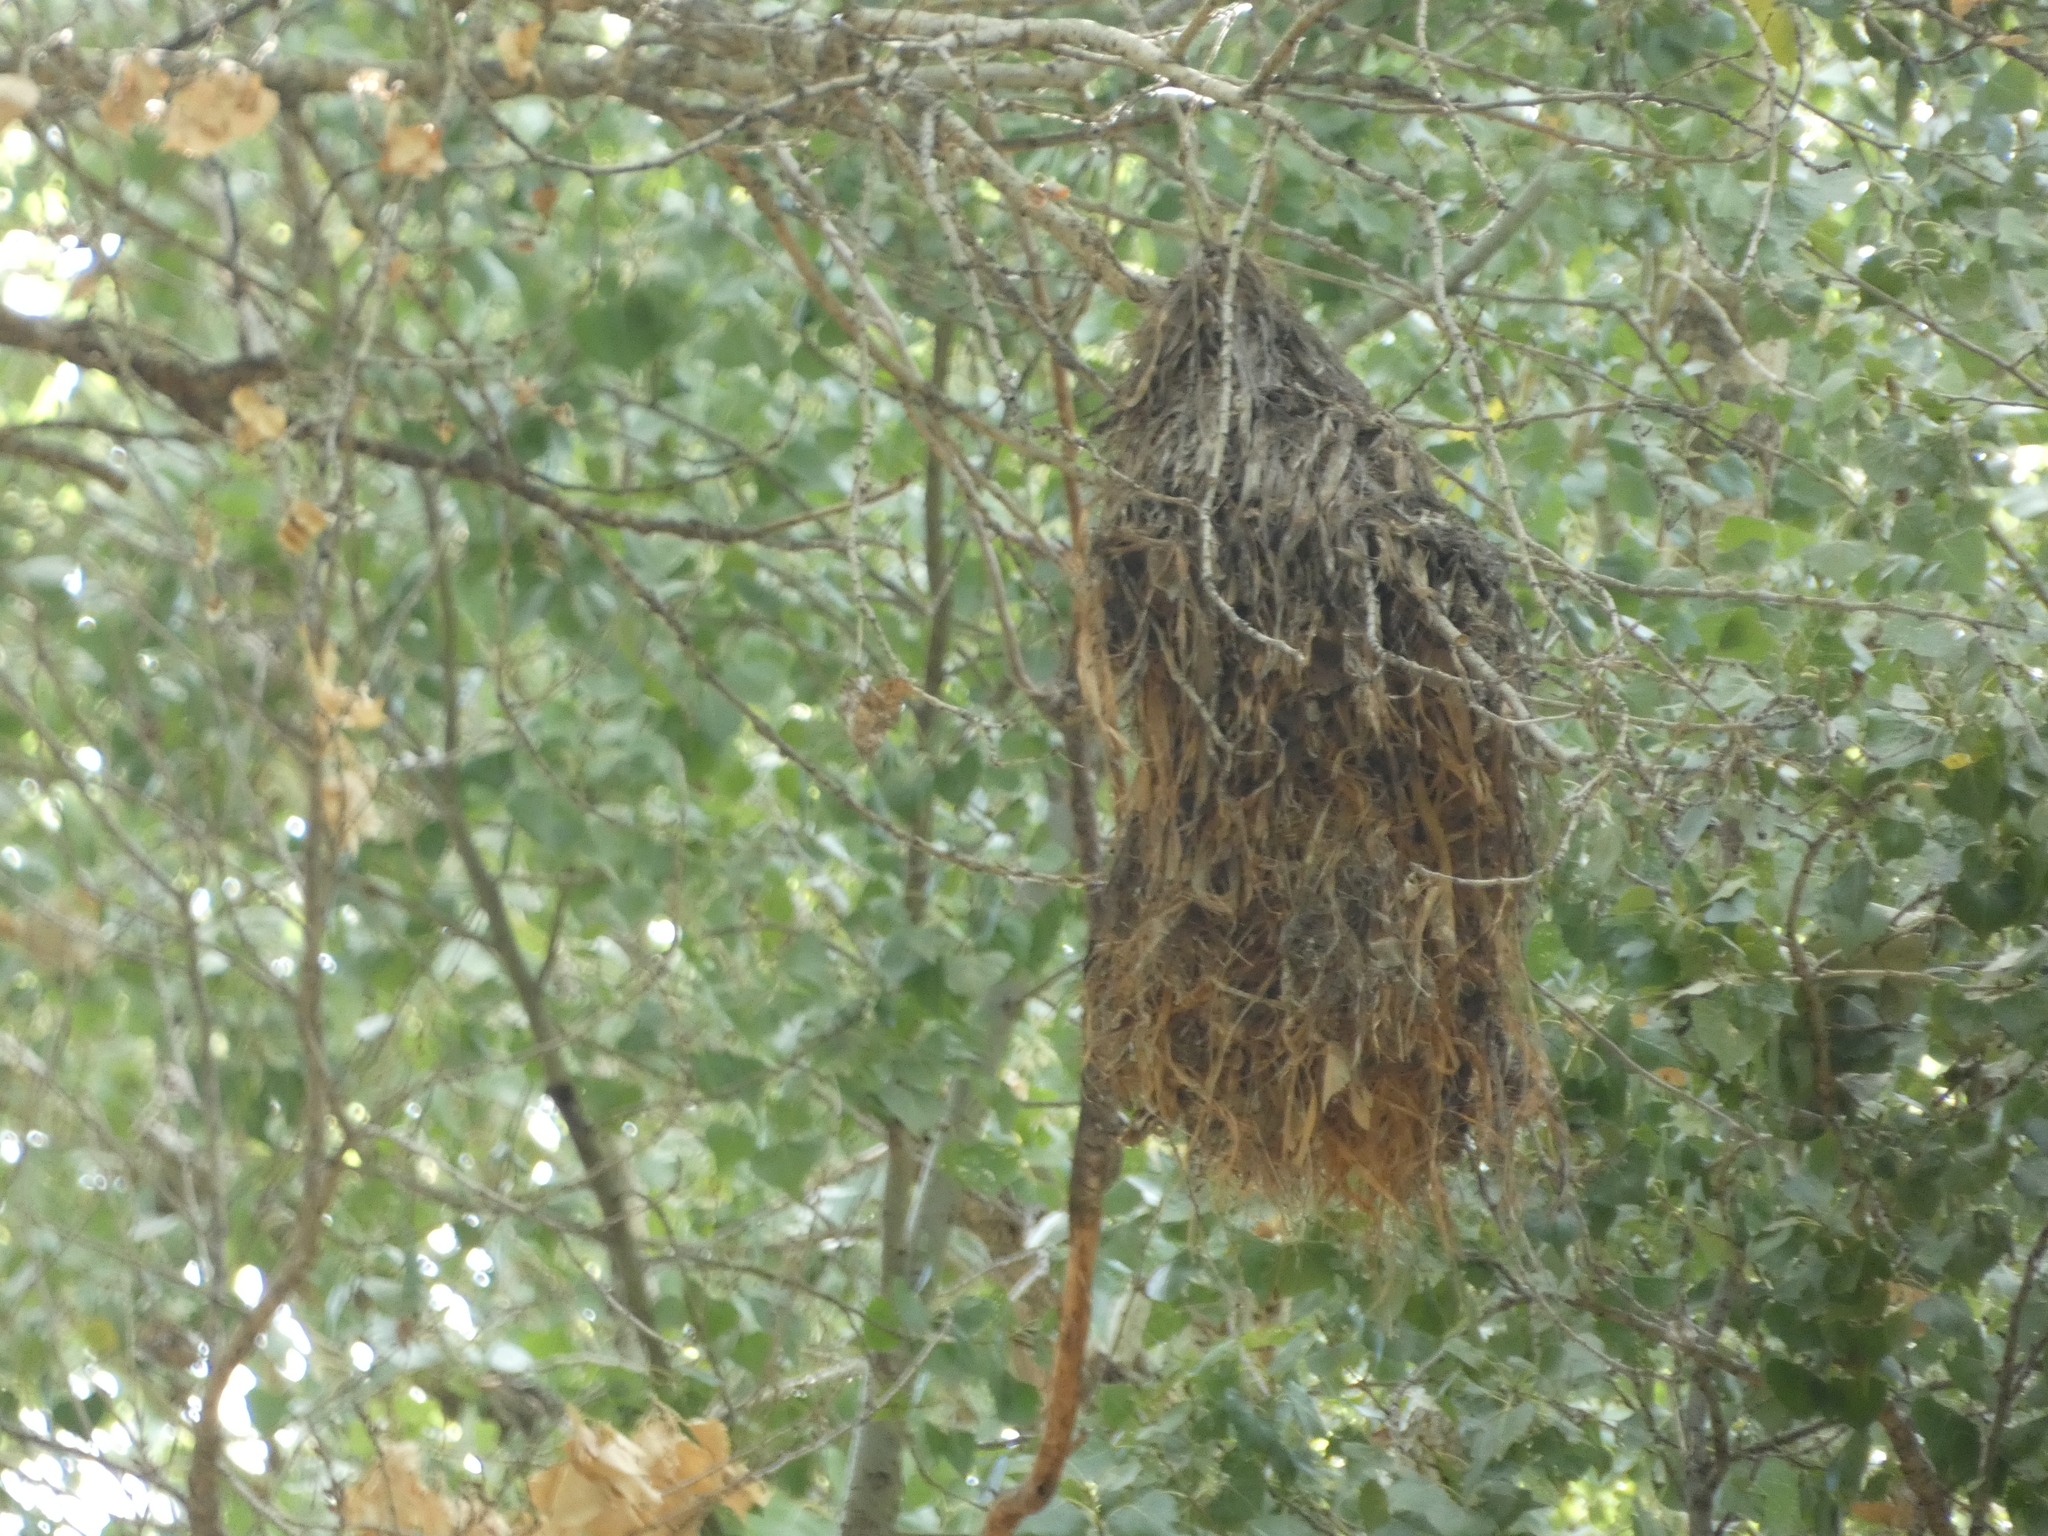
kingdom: Animalia
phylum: Chordata
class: Aves
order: Passeriformes
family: Cotingidae
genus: Pachyramphus
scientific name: Pachyramphus aglaiae
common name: Rose-throated becard
